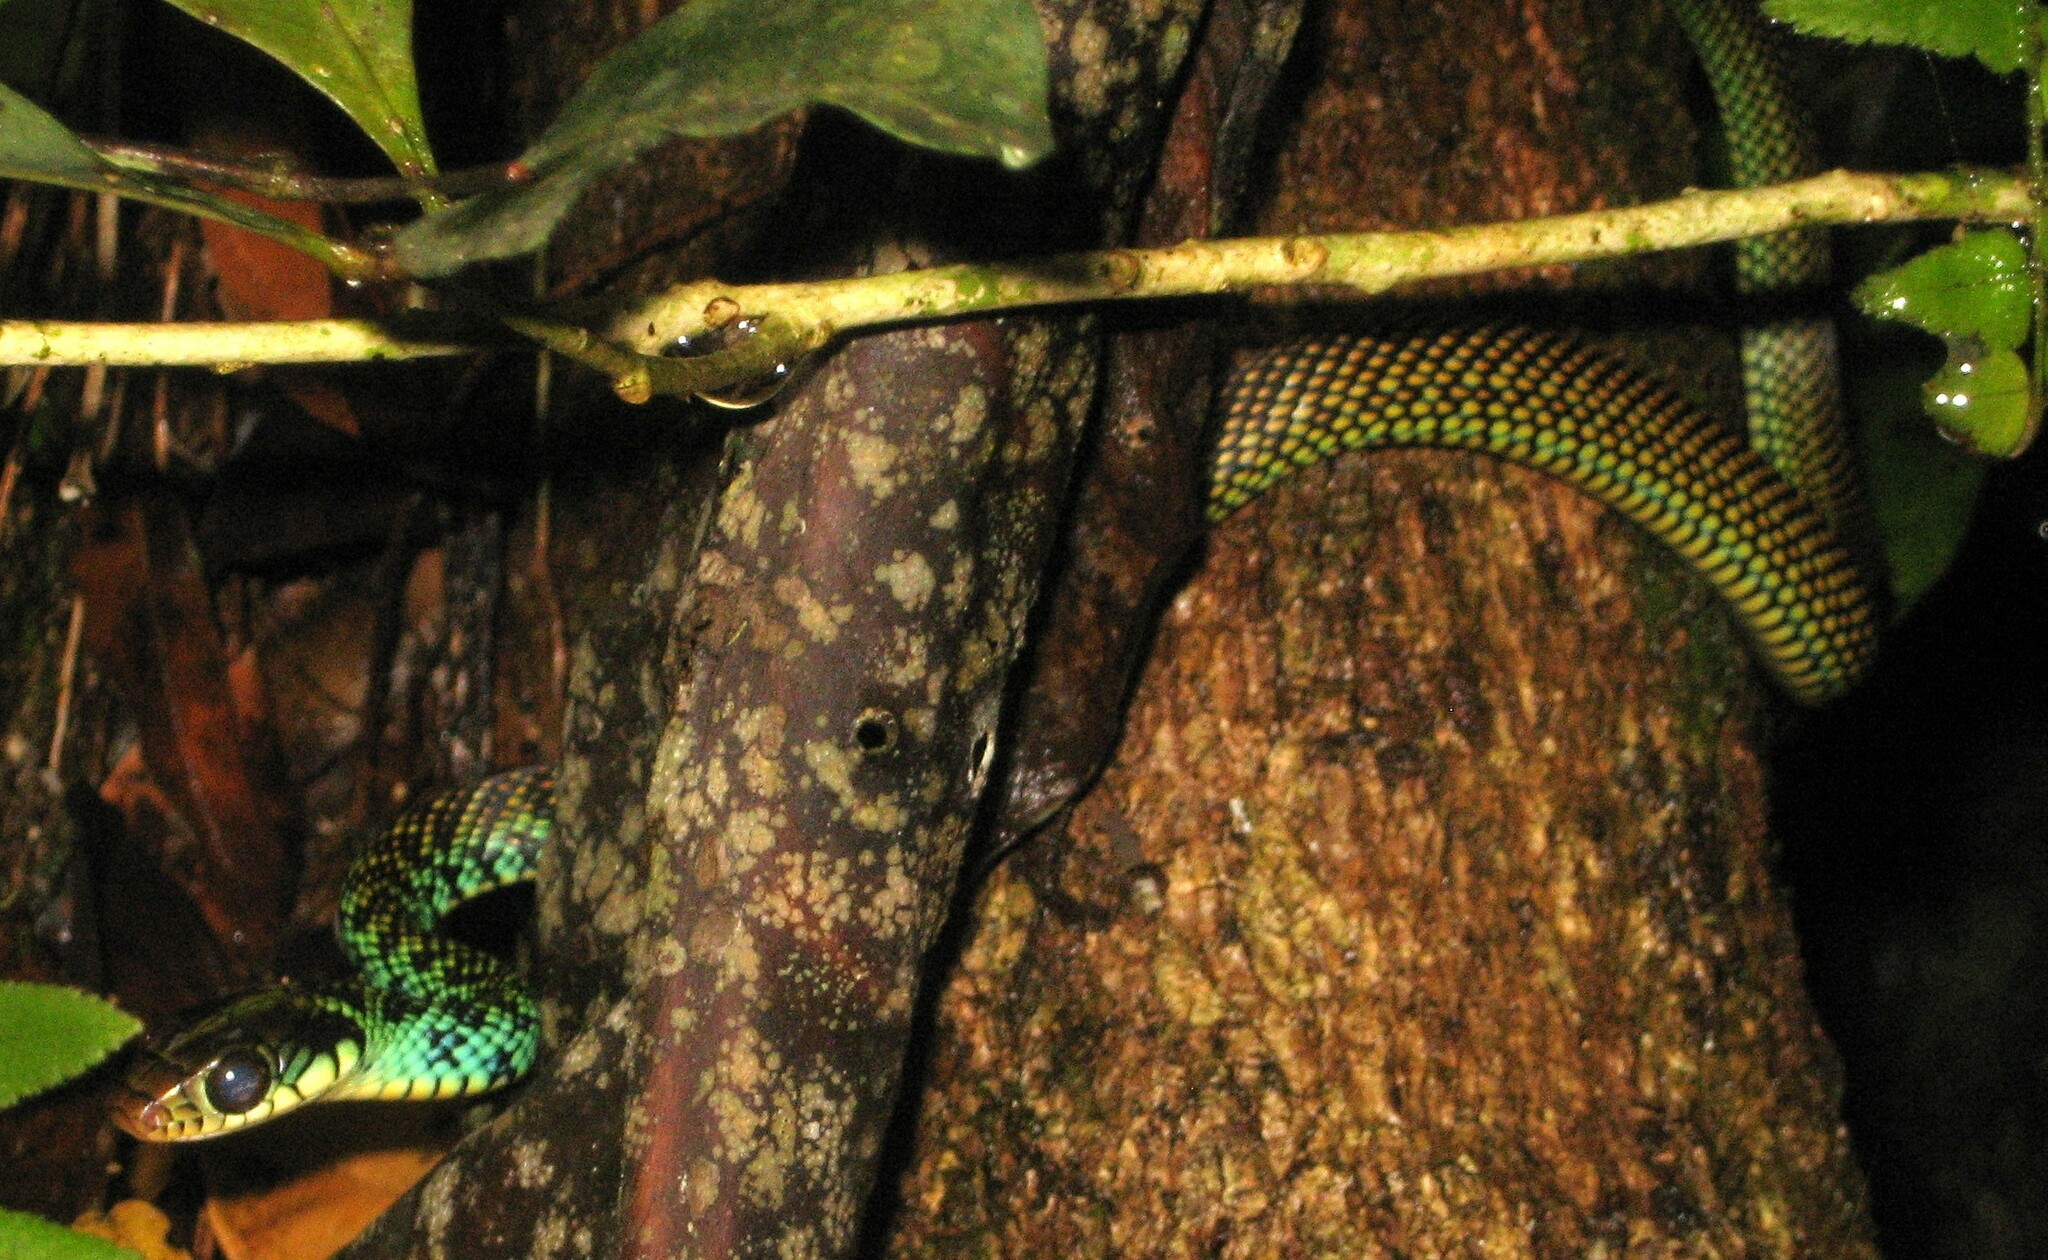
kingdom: Animalia
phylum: Chordata
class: Squamata
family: Colubridae
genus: Drymobius
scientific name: Drymobius margaritiferus
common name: Central american speckled racer
